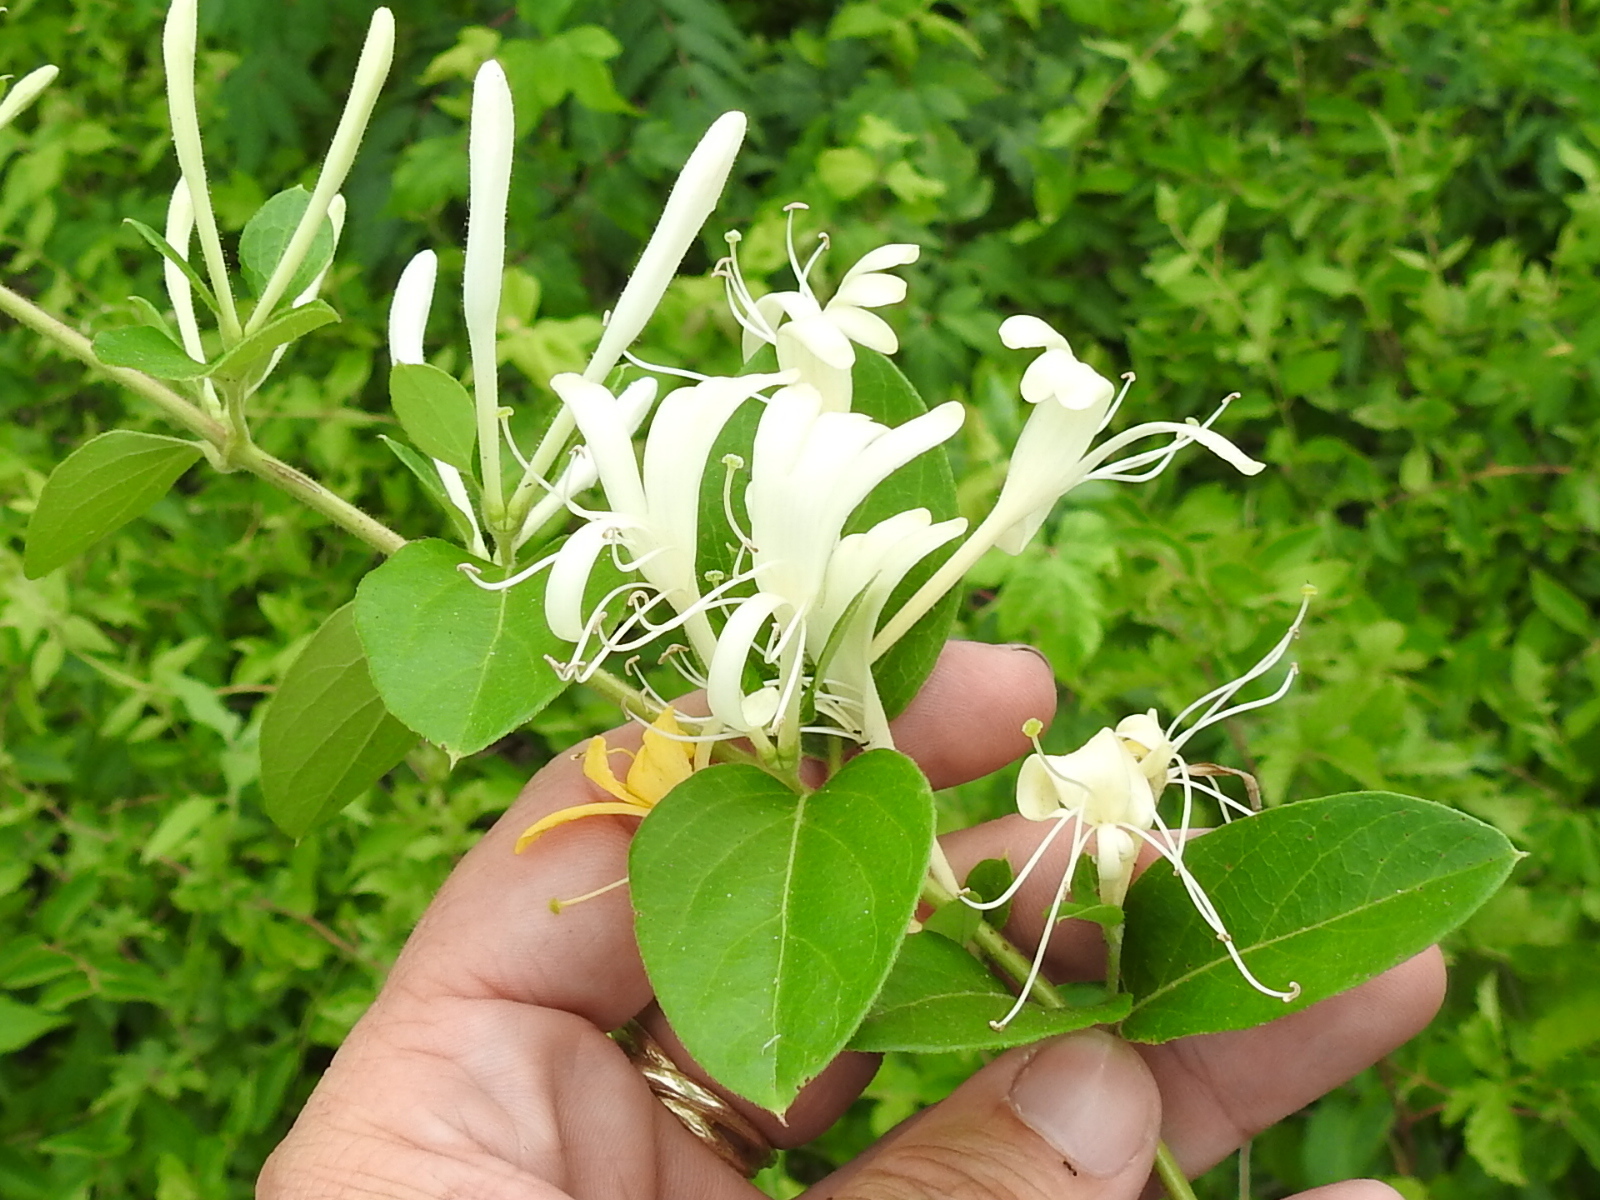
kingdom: Plantae
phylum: Tracheophyta
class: Magnoliopsida
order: Dipsacales
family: Caprifoliaceae
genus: Lonicera
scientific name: Lonicera japonica
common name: Japanese honeysuckle
